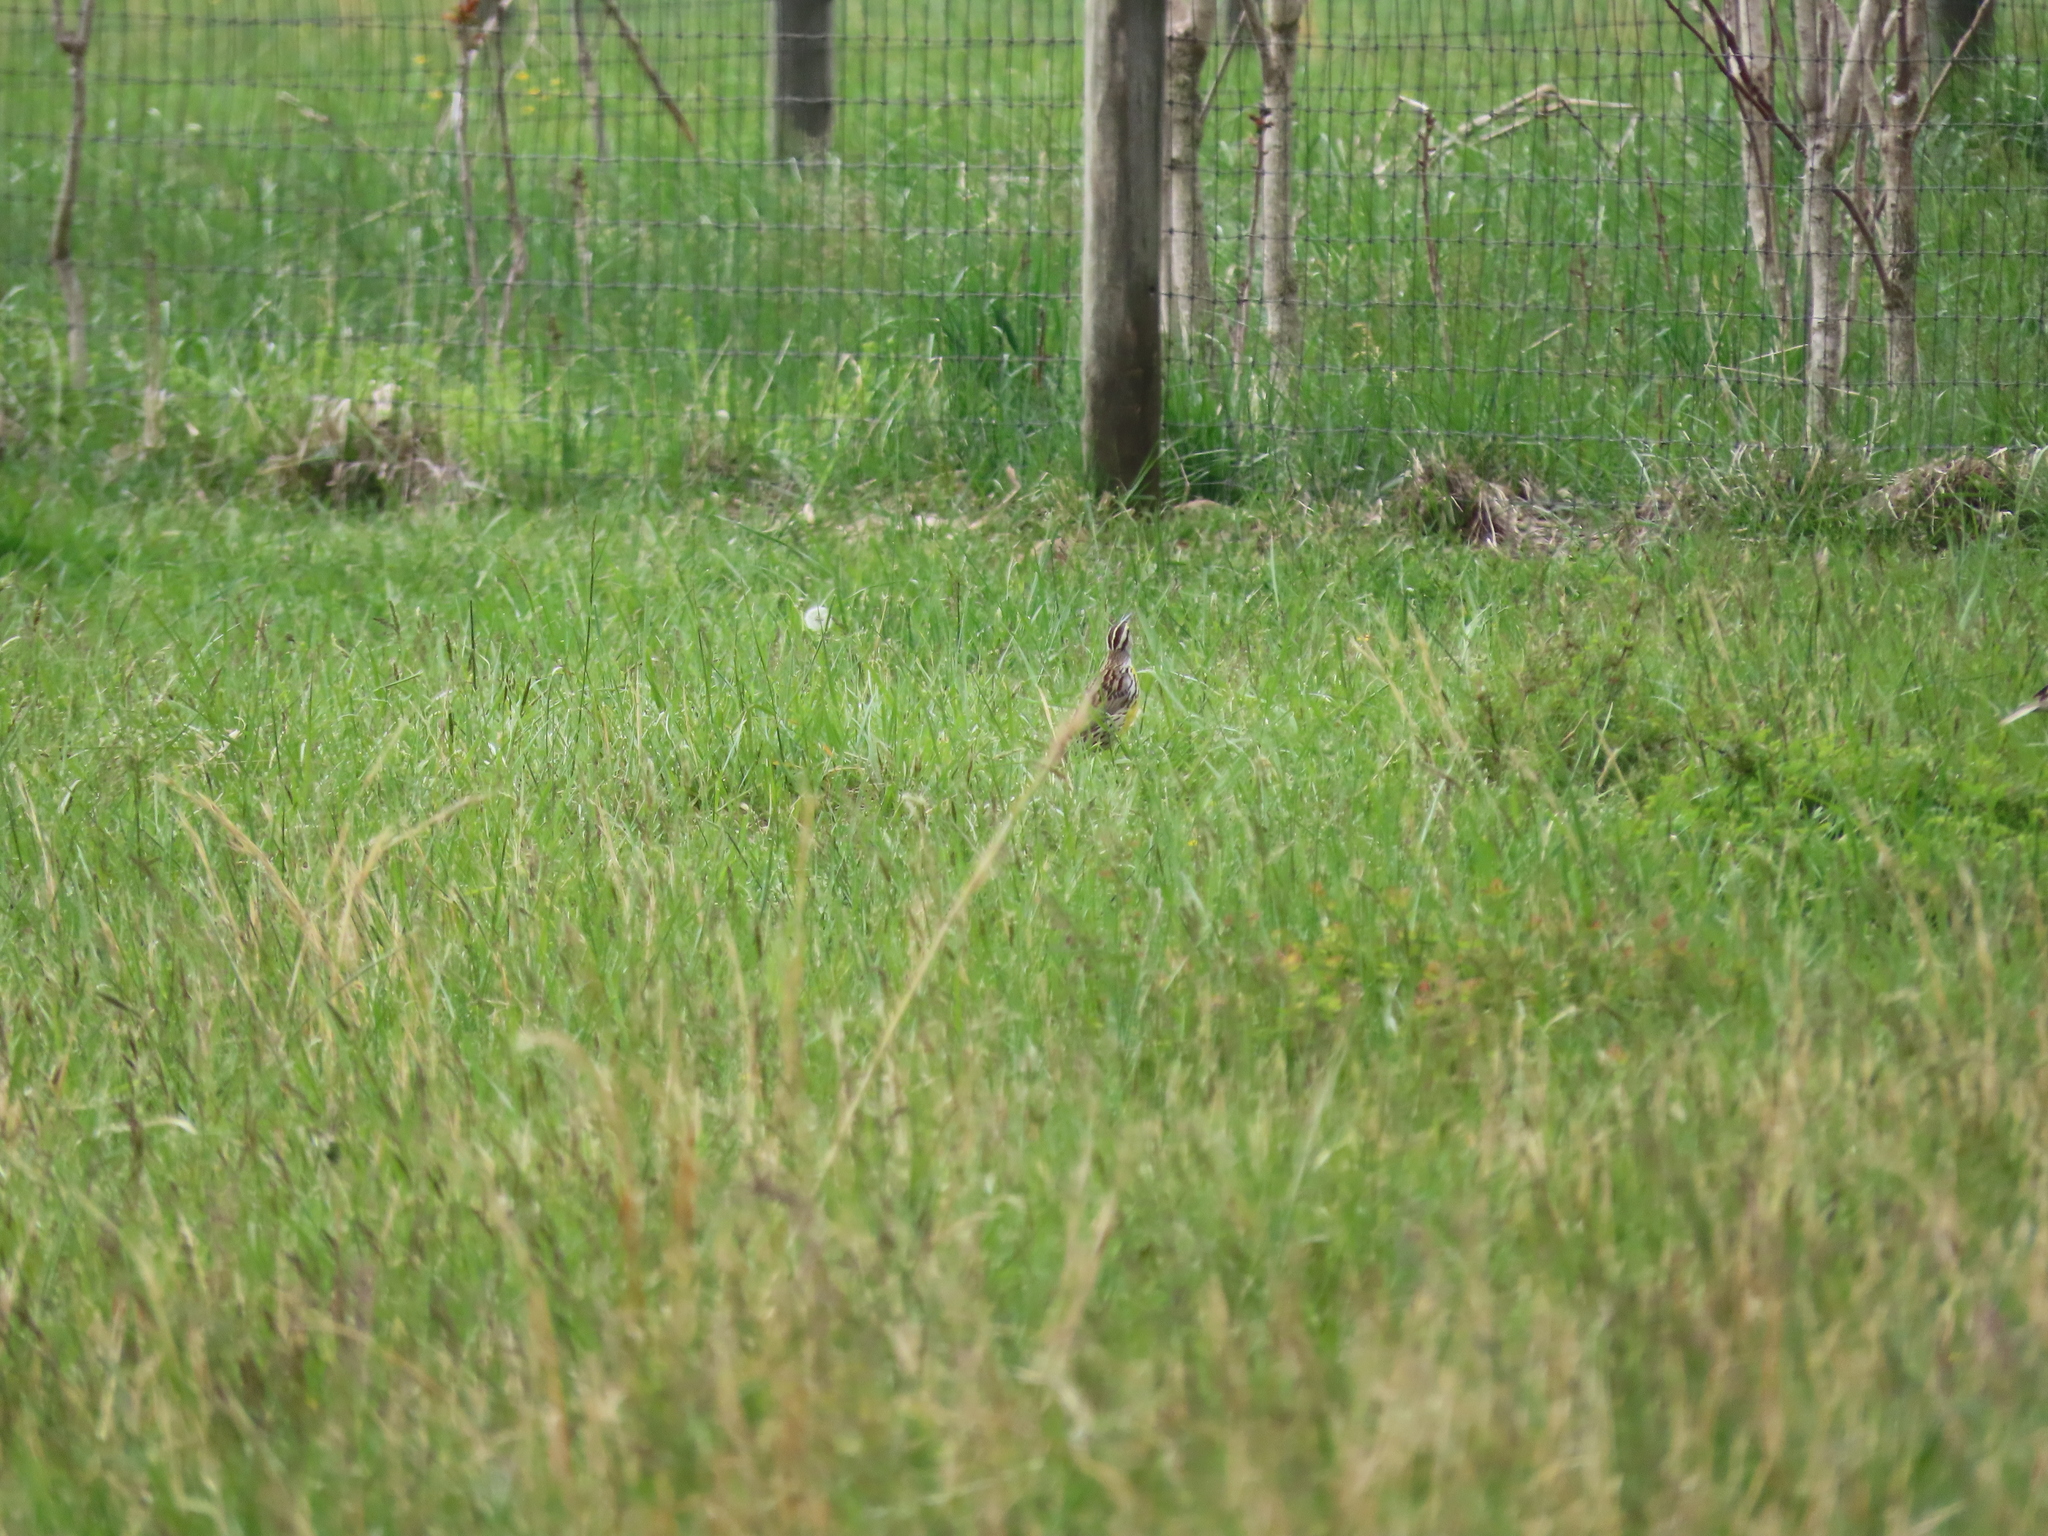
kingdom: Animalia
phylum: Chordata
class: Aves
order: Passeriformes
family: Icteridae
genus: Sturnella
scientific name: Sturnella magna
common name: Eastern meadowlark
